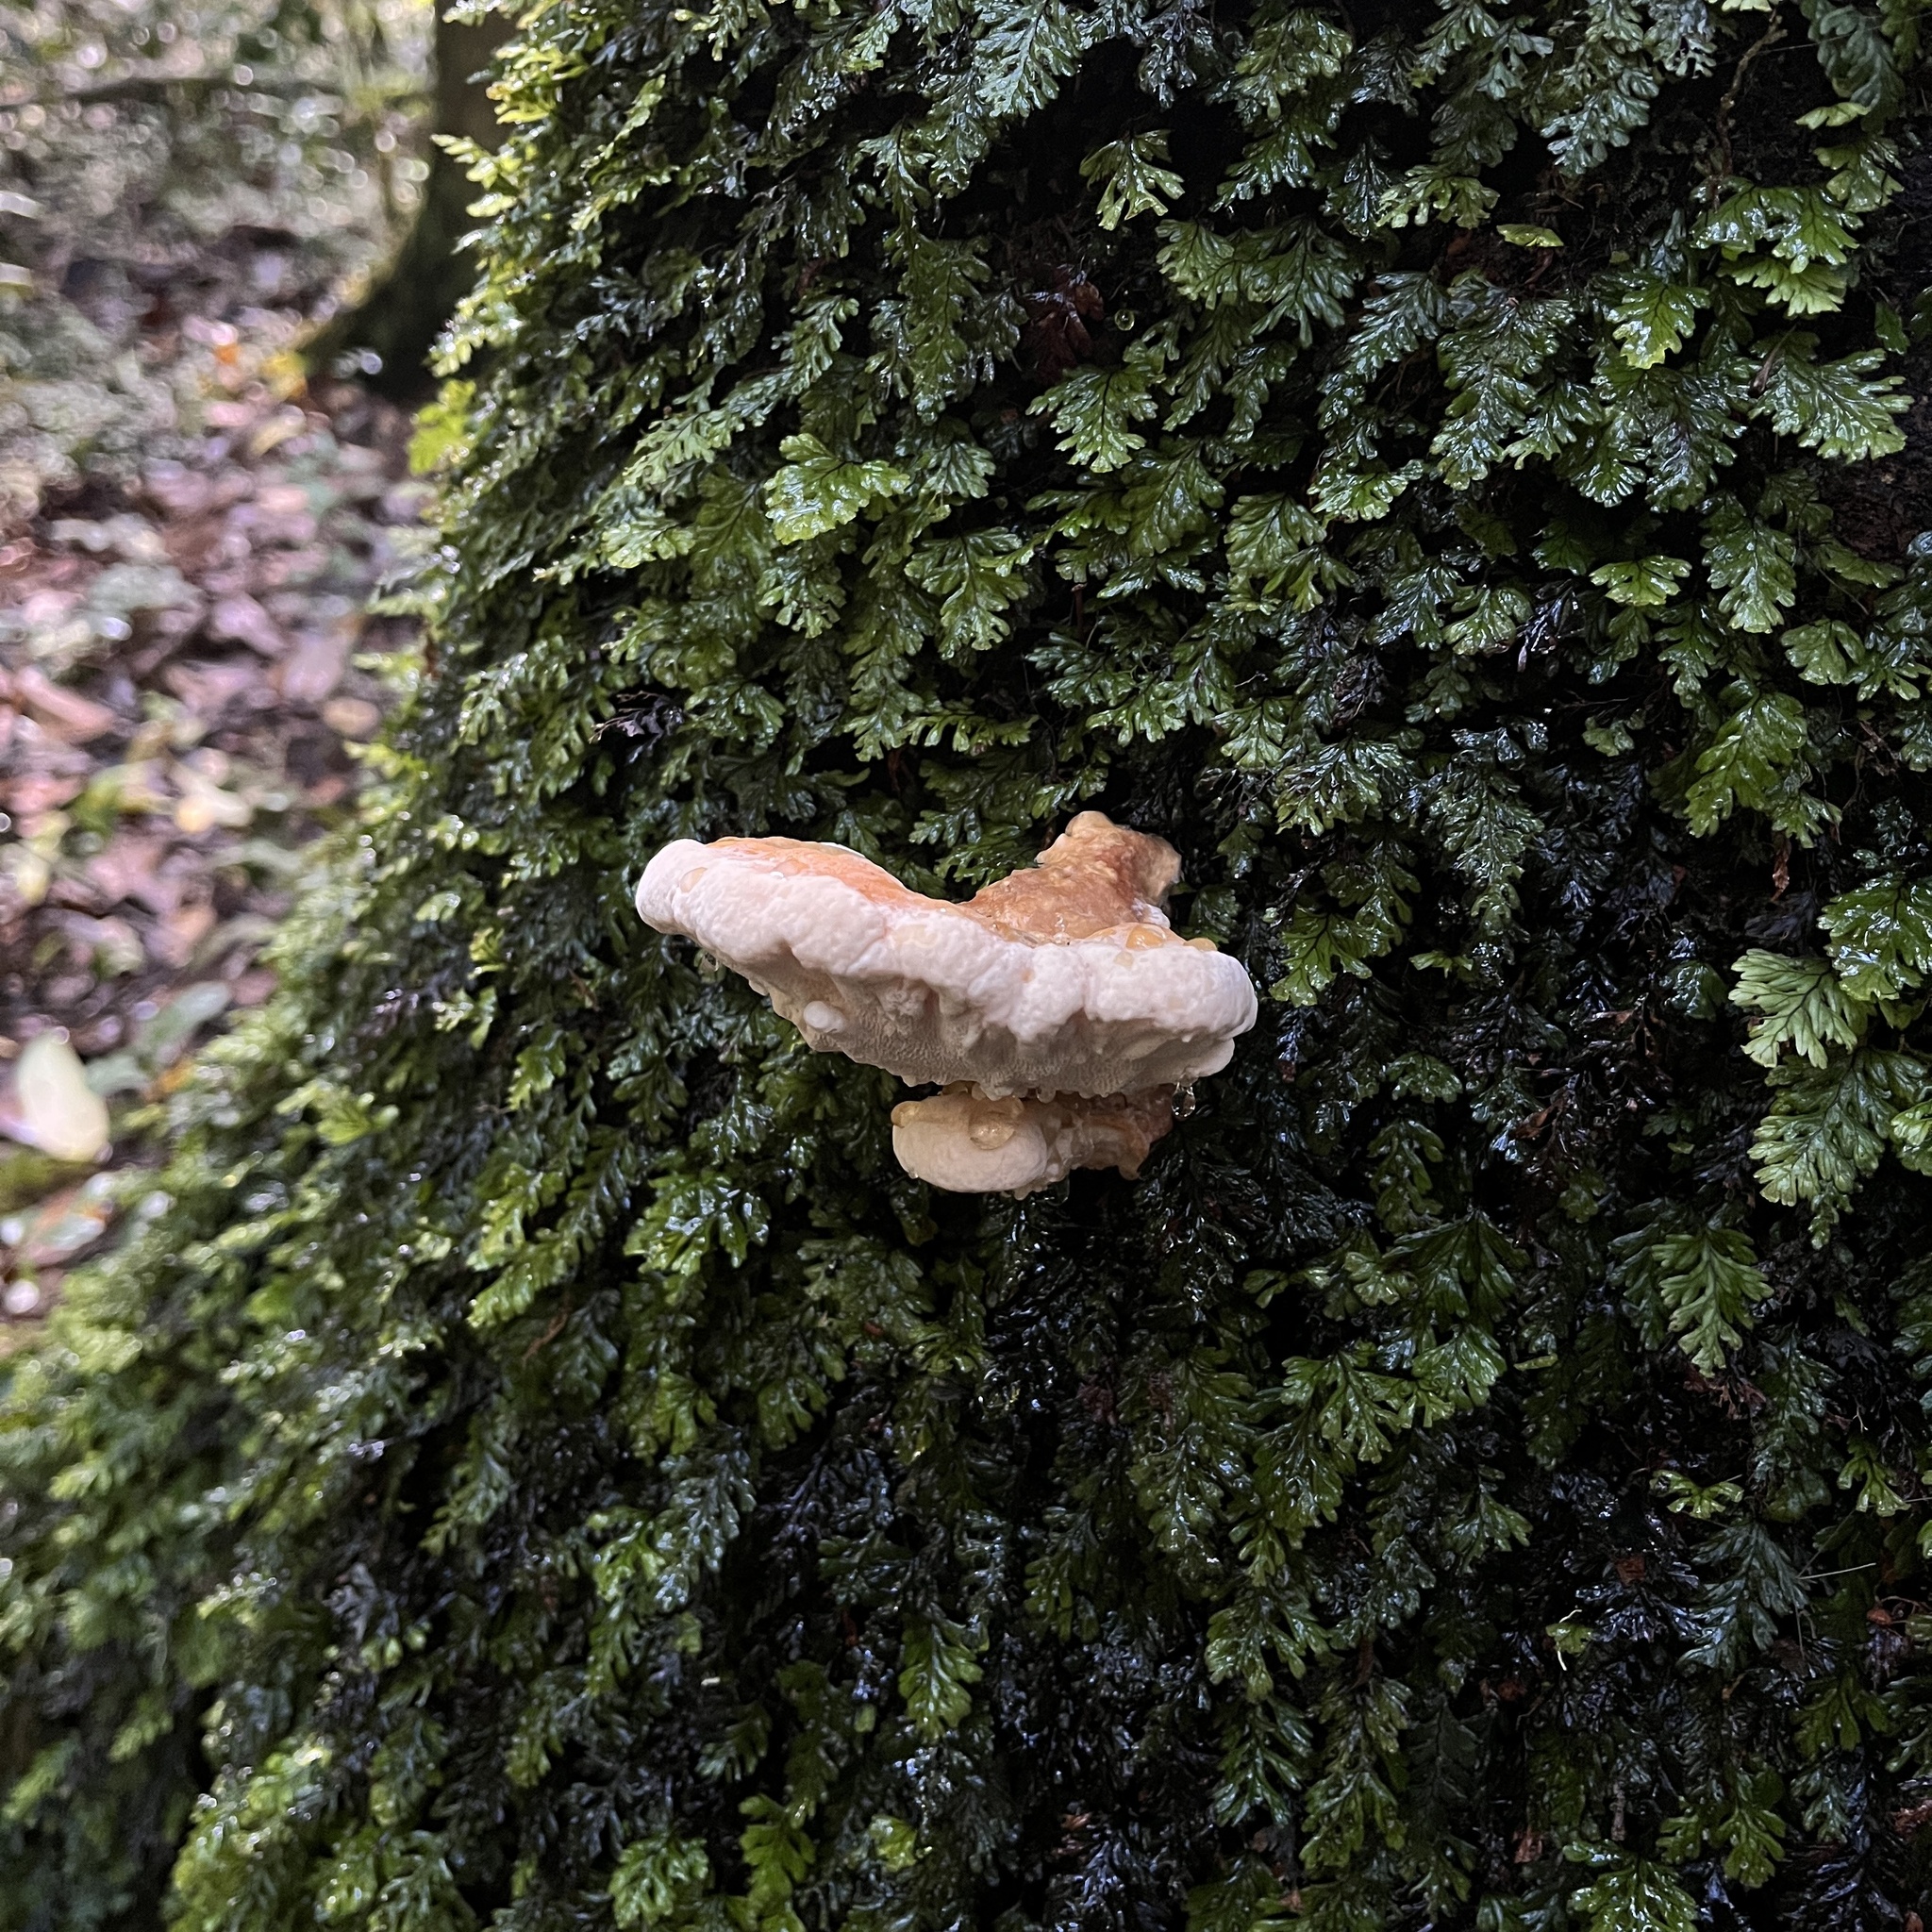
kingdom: Fungi
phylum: Basidiomycota
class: Agaricomycetes
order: Russulales
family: Bondarzewiaceae
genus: Bondarzewia
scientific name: Bondarzewia guaitecasensis
